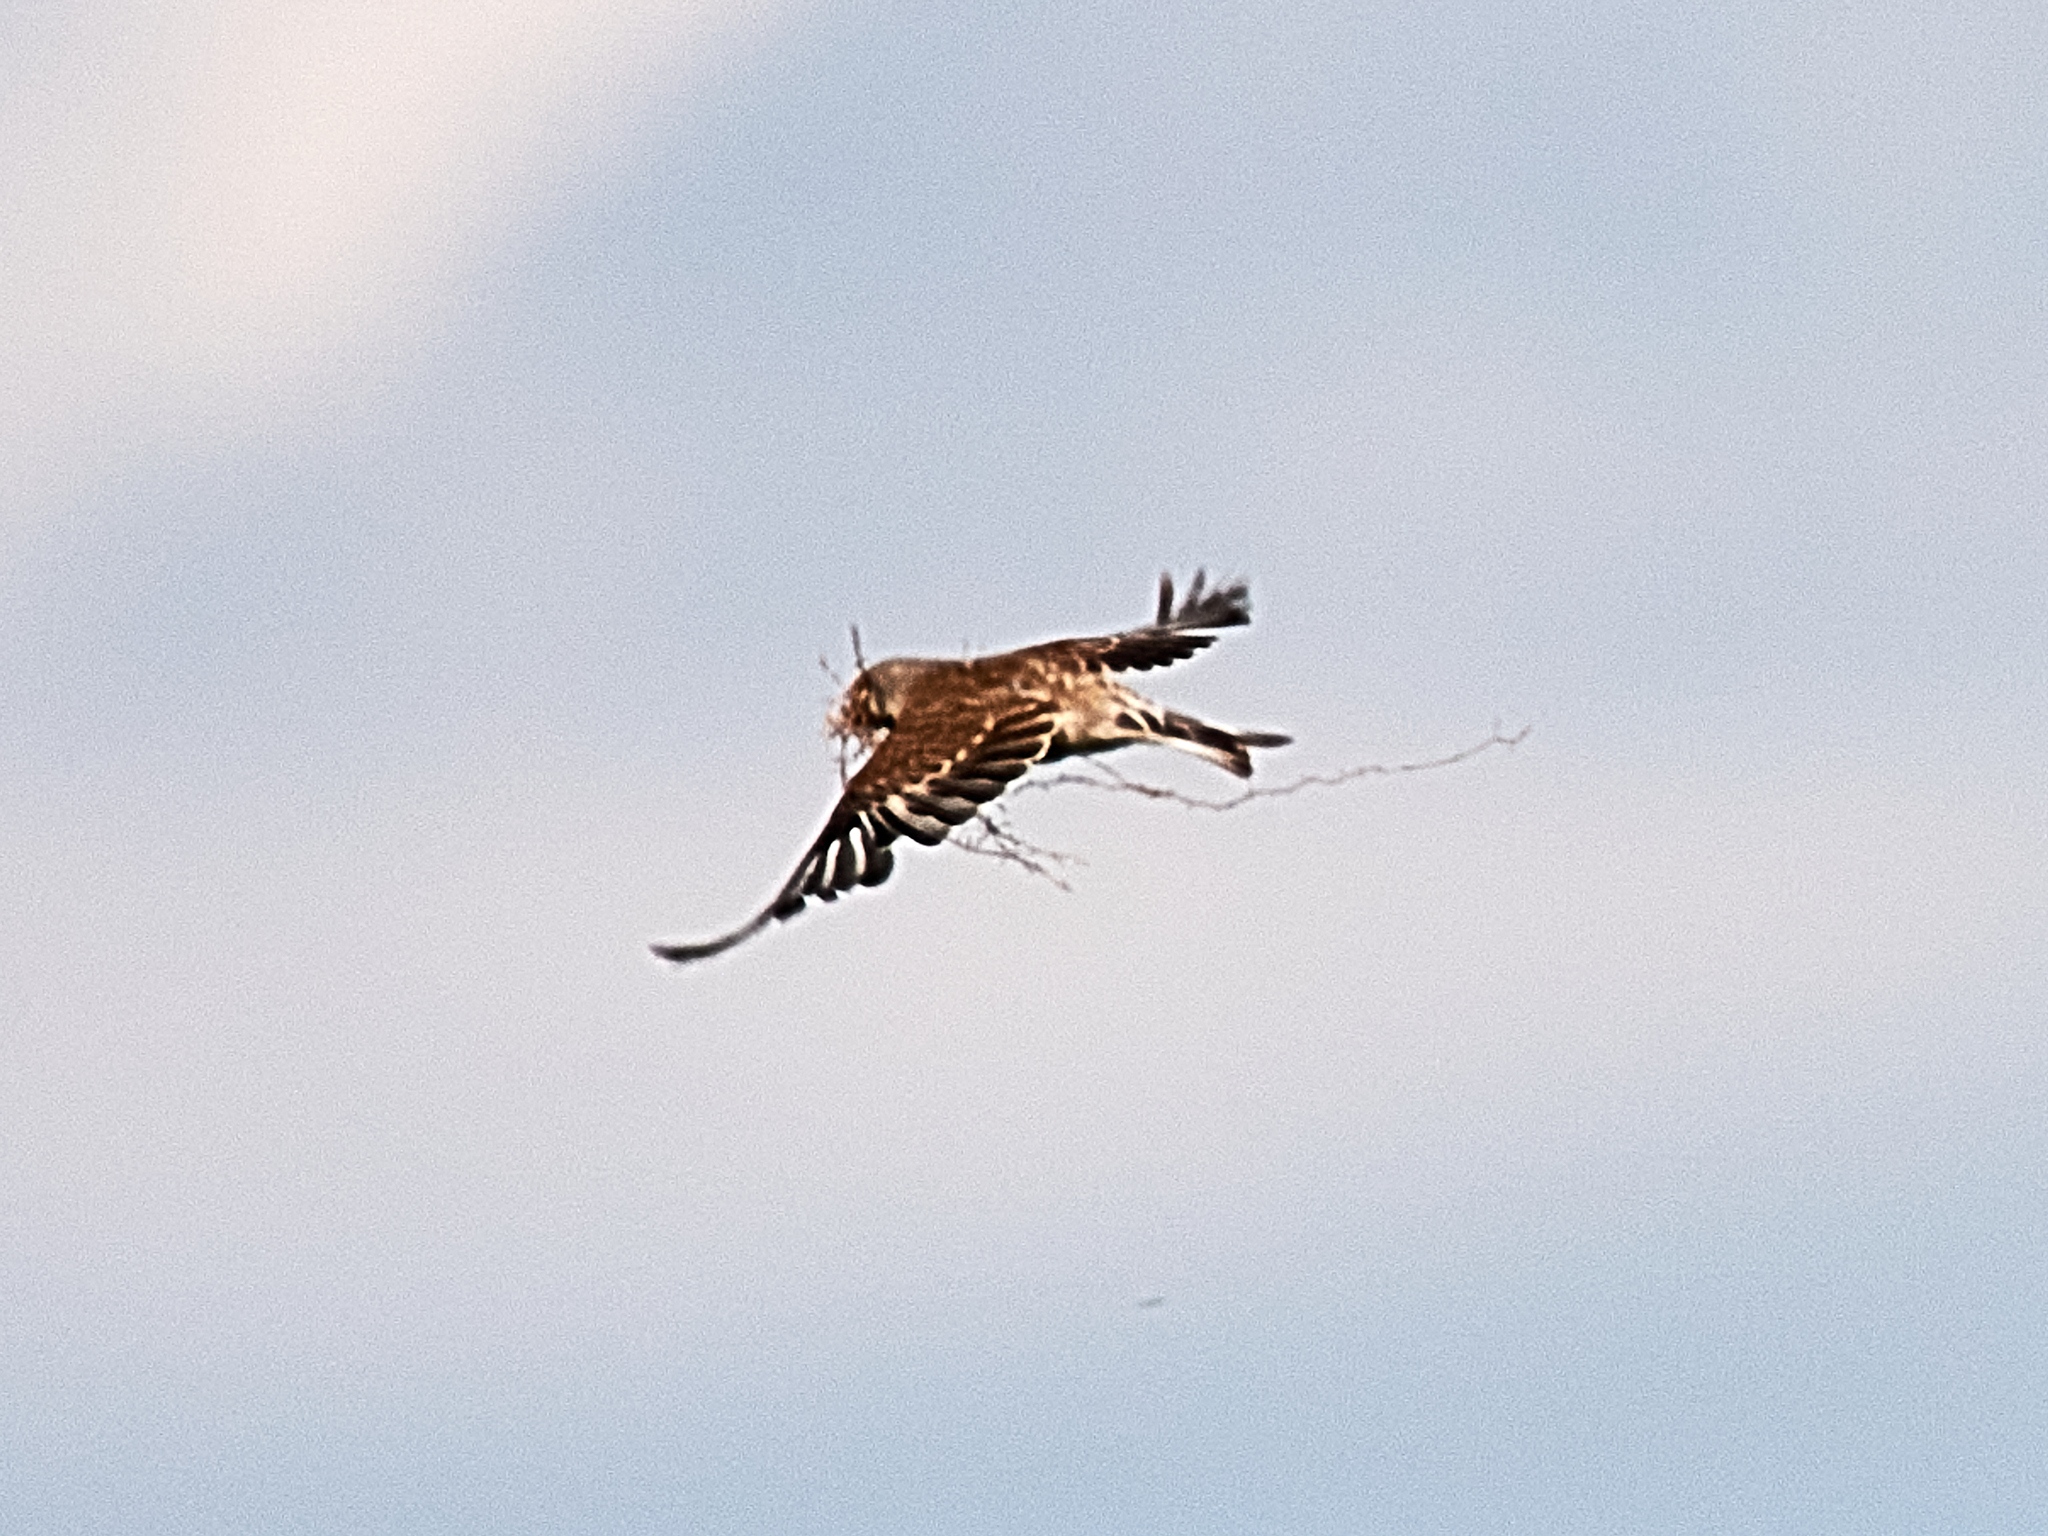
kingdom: Animalia
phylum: Chordata
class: Aves
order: Passeriformes
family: Fringillidae
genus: Linaria
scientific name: Linaria cannabina
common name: Common linnet
